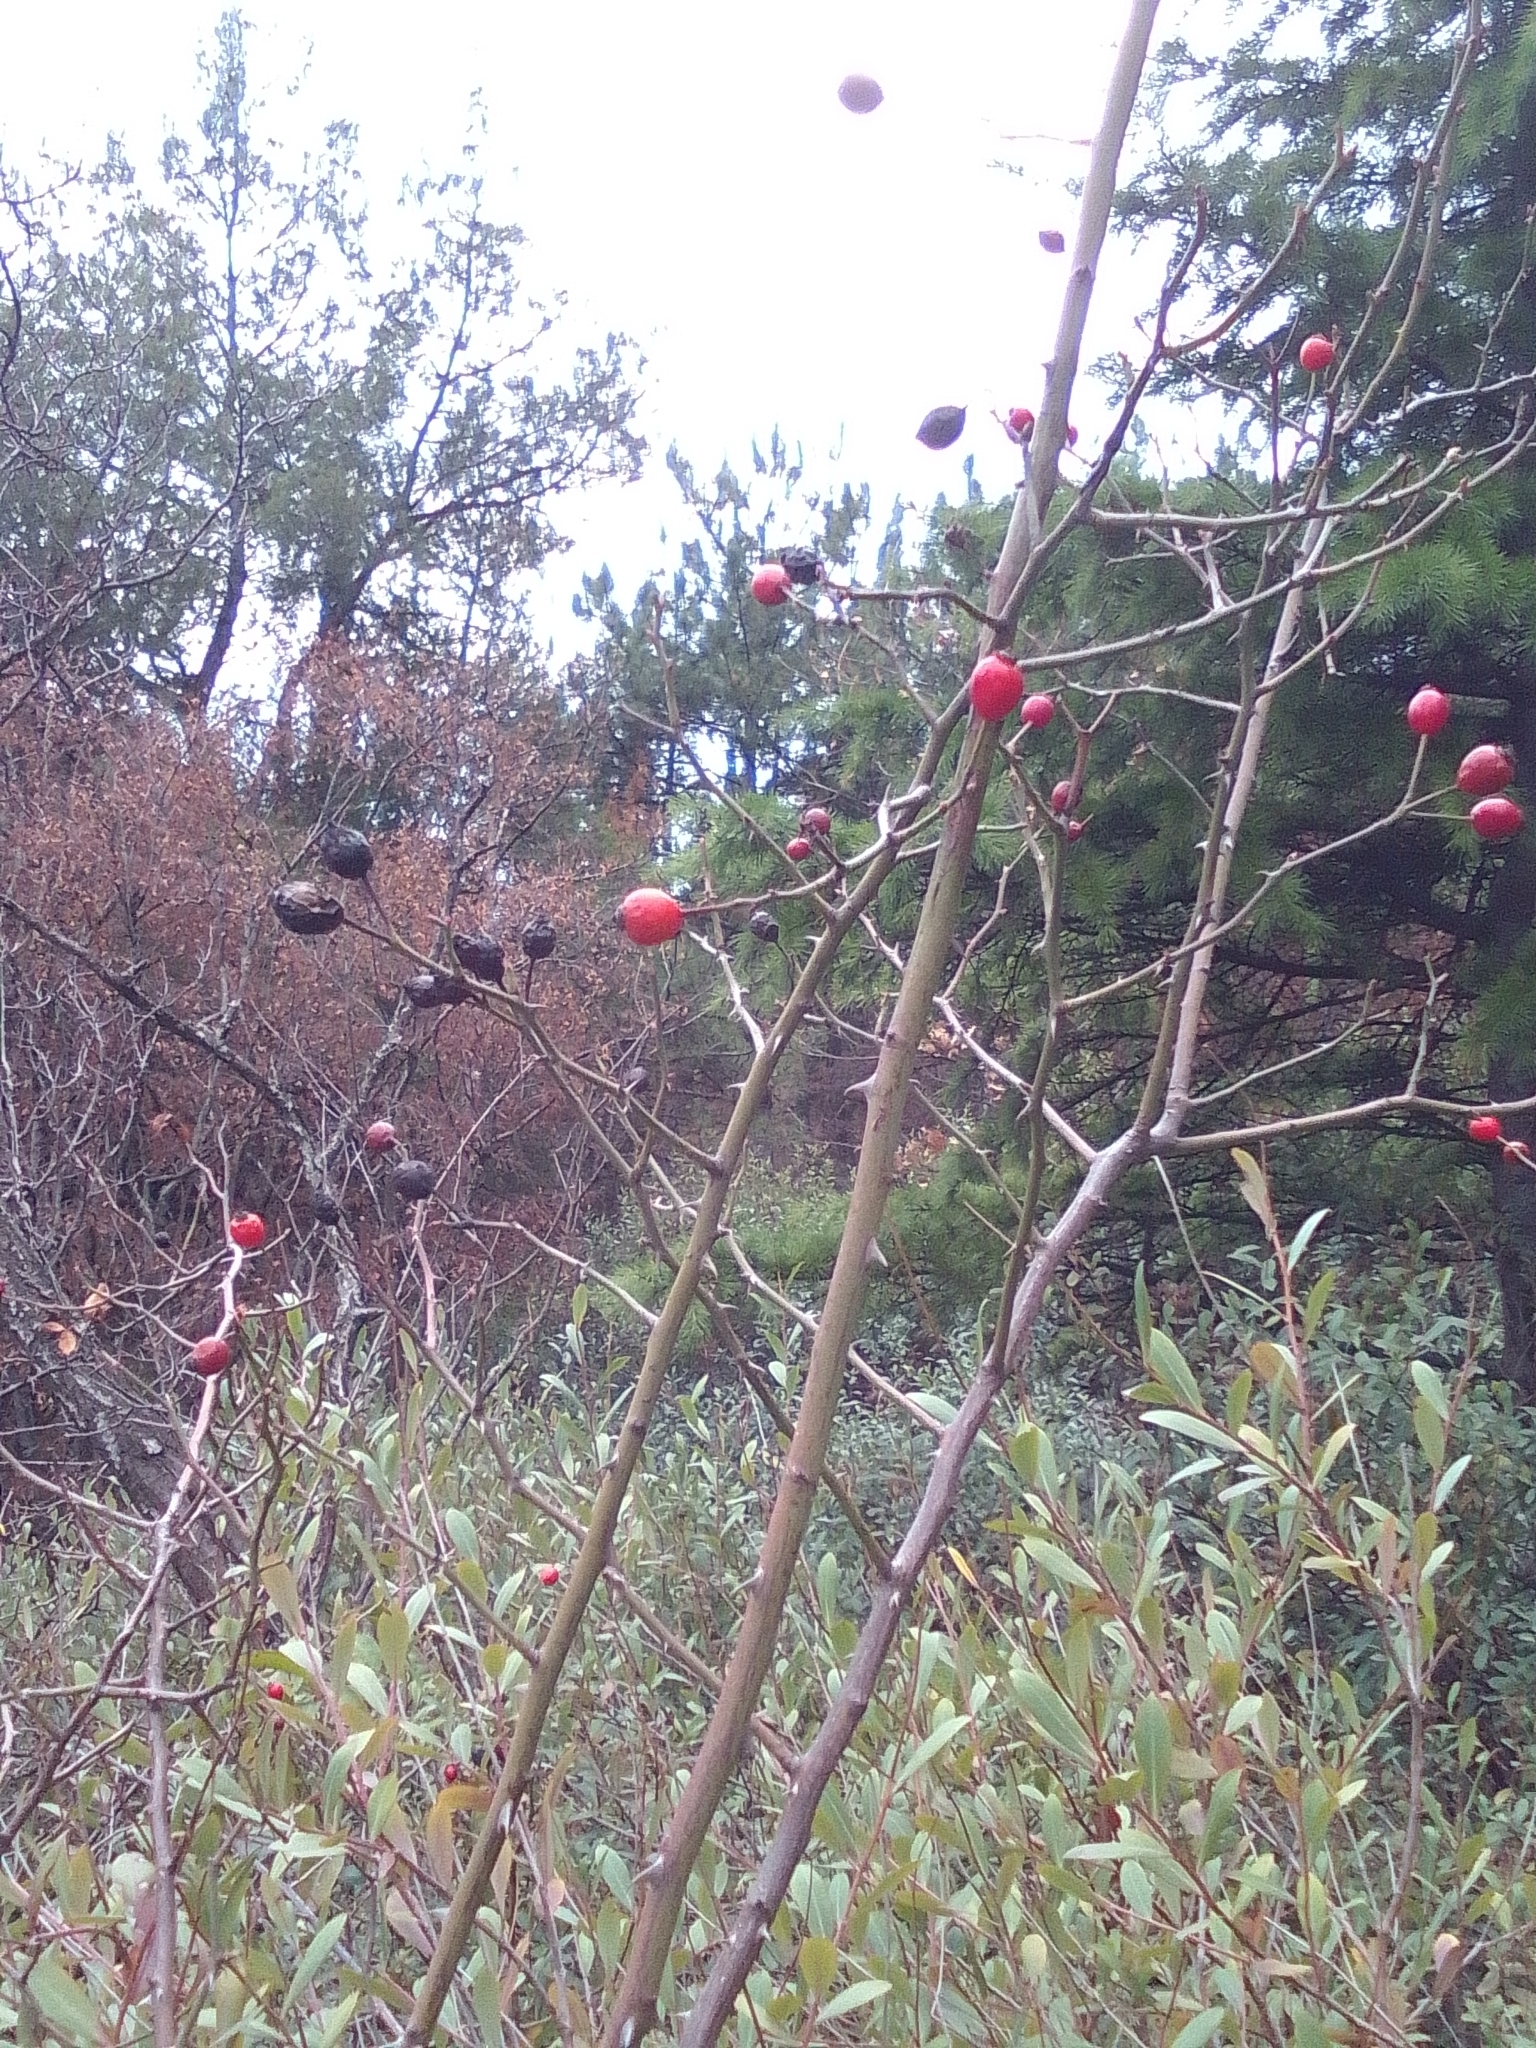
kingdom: Plantae
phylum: Tracheophyta
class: Magnoliopsida
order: Rosales
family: Rosaceae
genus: Rosa
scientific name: Rosa canina
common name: Dog rose
